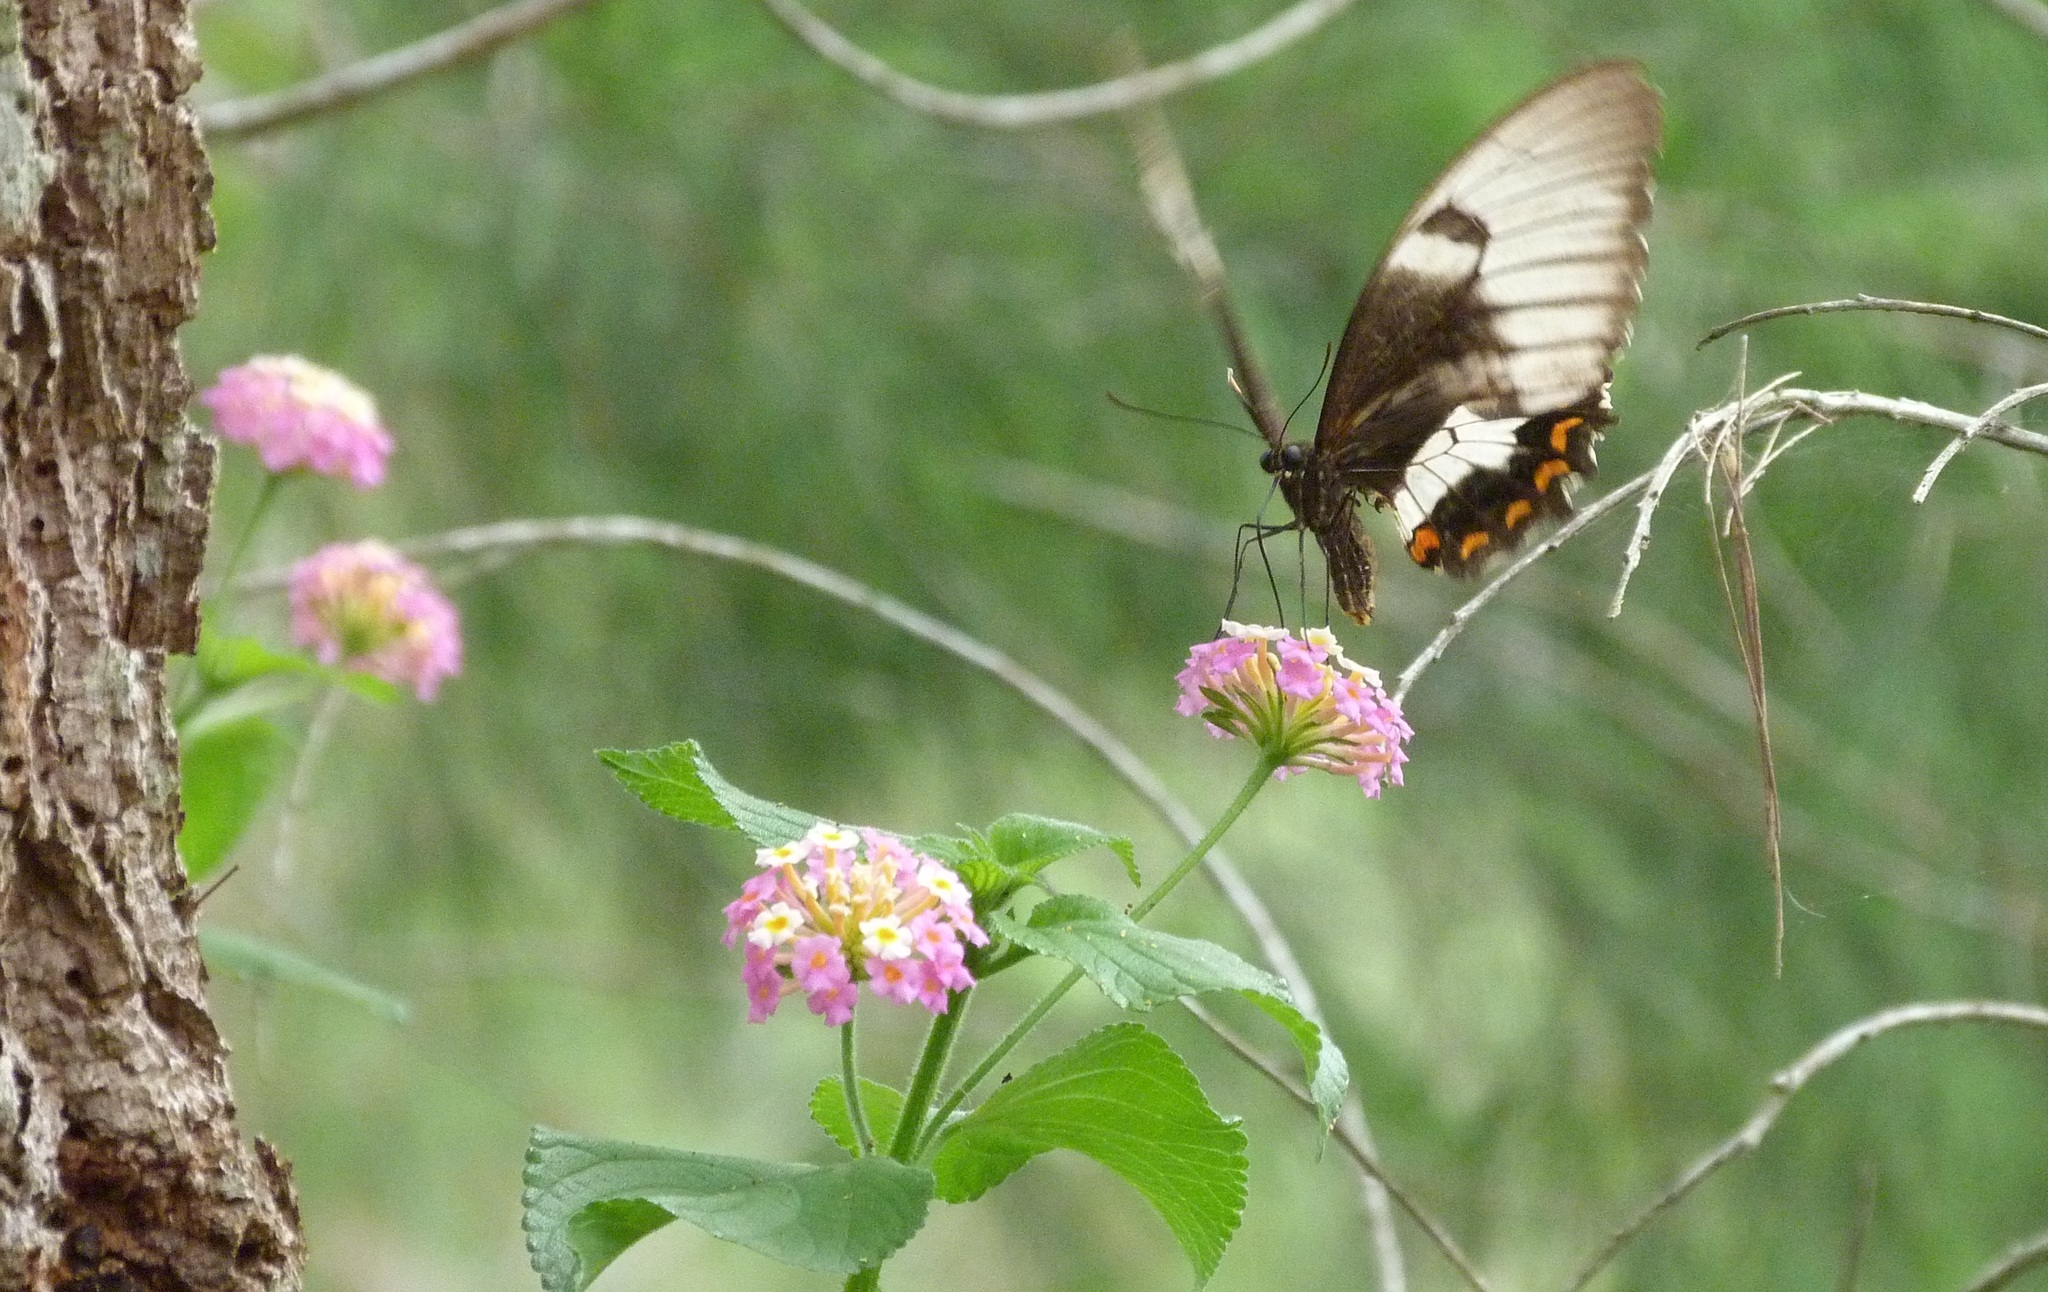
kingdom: Animalia
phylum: Arthropoda
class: Insecta
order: Lepidoptera
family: Papilionidae
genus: Papilio
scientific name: Papilio aegeus
